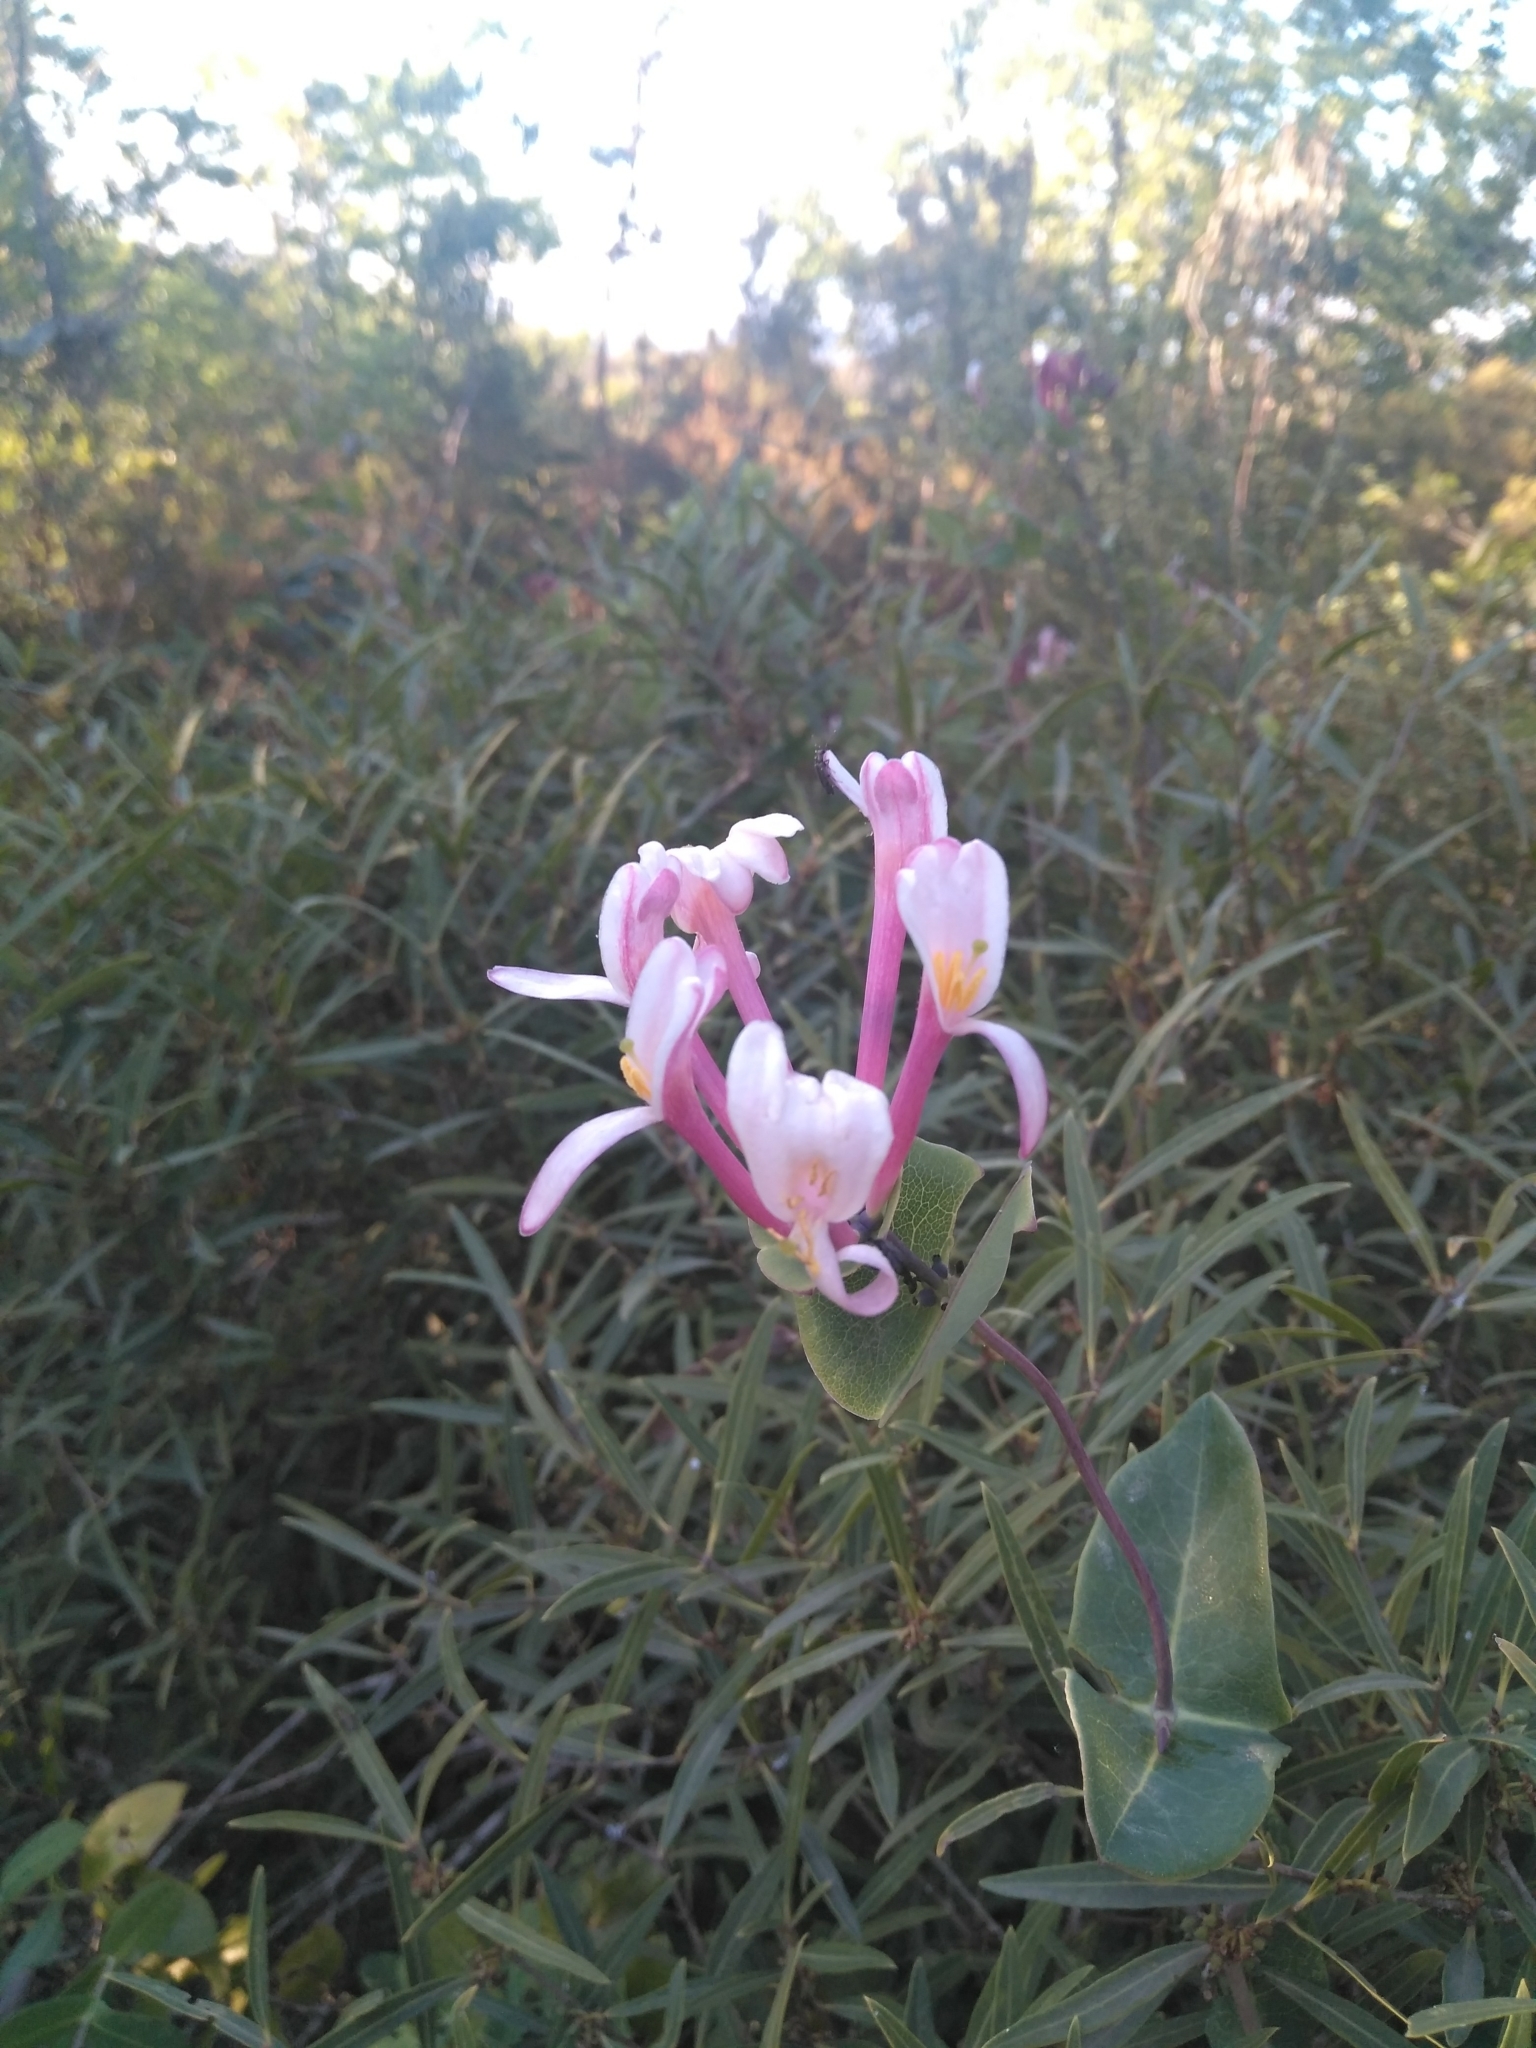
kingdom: Plantae
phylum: Tracheophyta
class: Magnoliopsida
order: Dipsacales
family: Caprifoliaceae
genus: Lonicera
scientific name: Lonicera implexa
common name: Minorca honeysuckle
